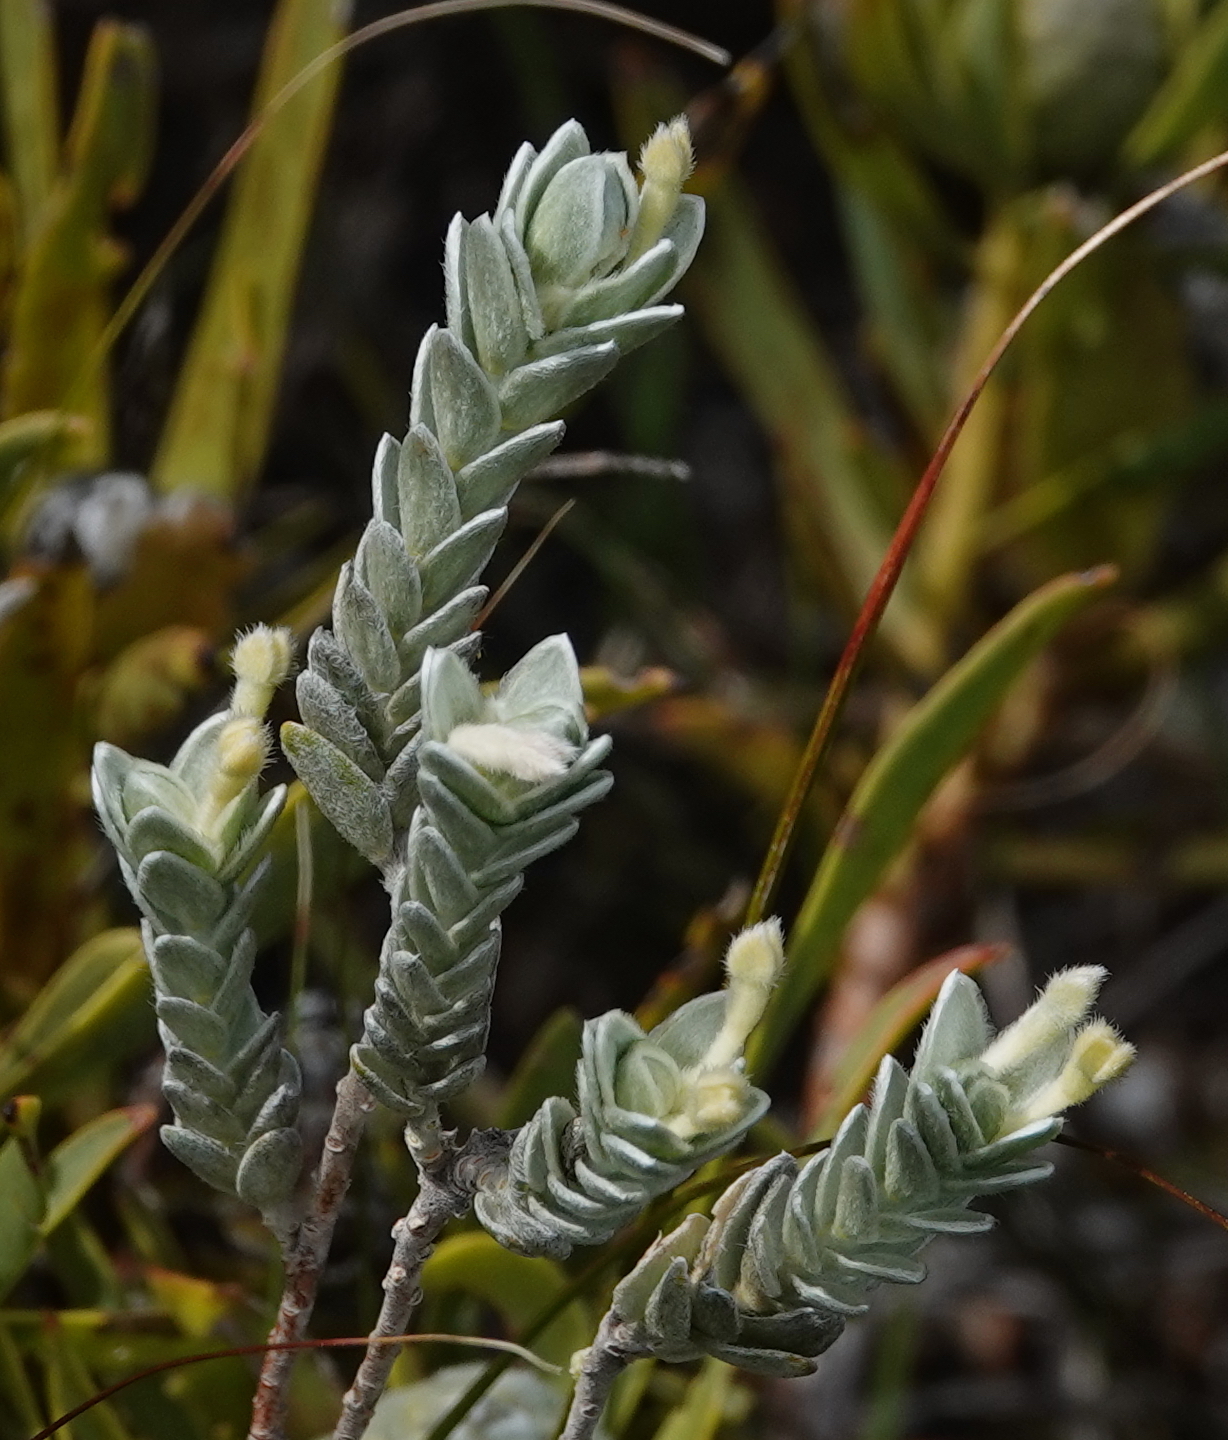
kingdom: Plantae
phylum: Tracheophyta
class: Magnoliopsida
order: Malvales
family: Thymelaeaceae
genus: Gnidia
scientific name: Gnidia imbricata
